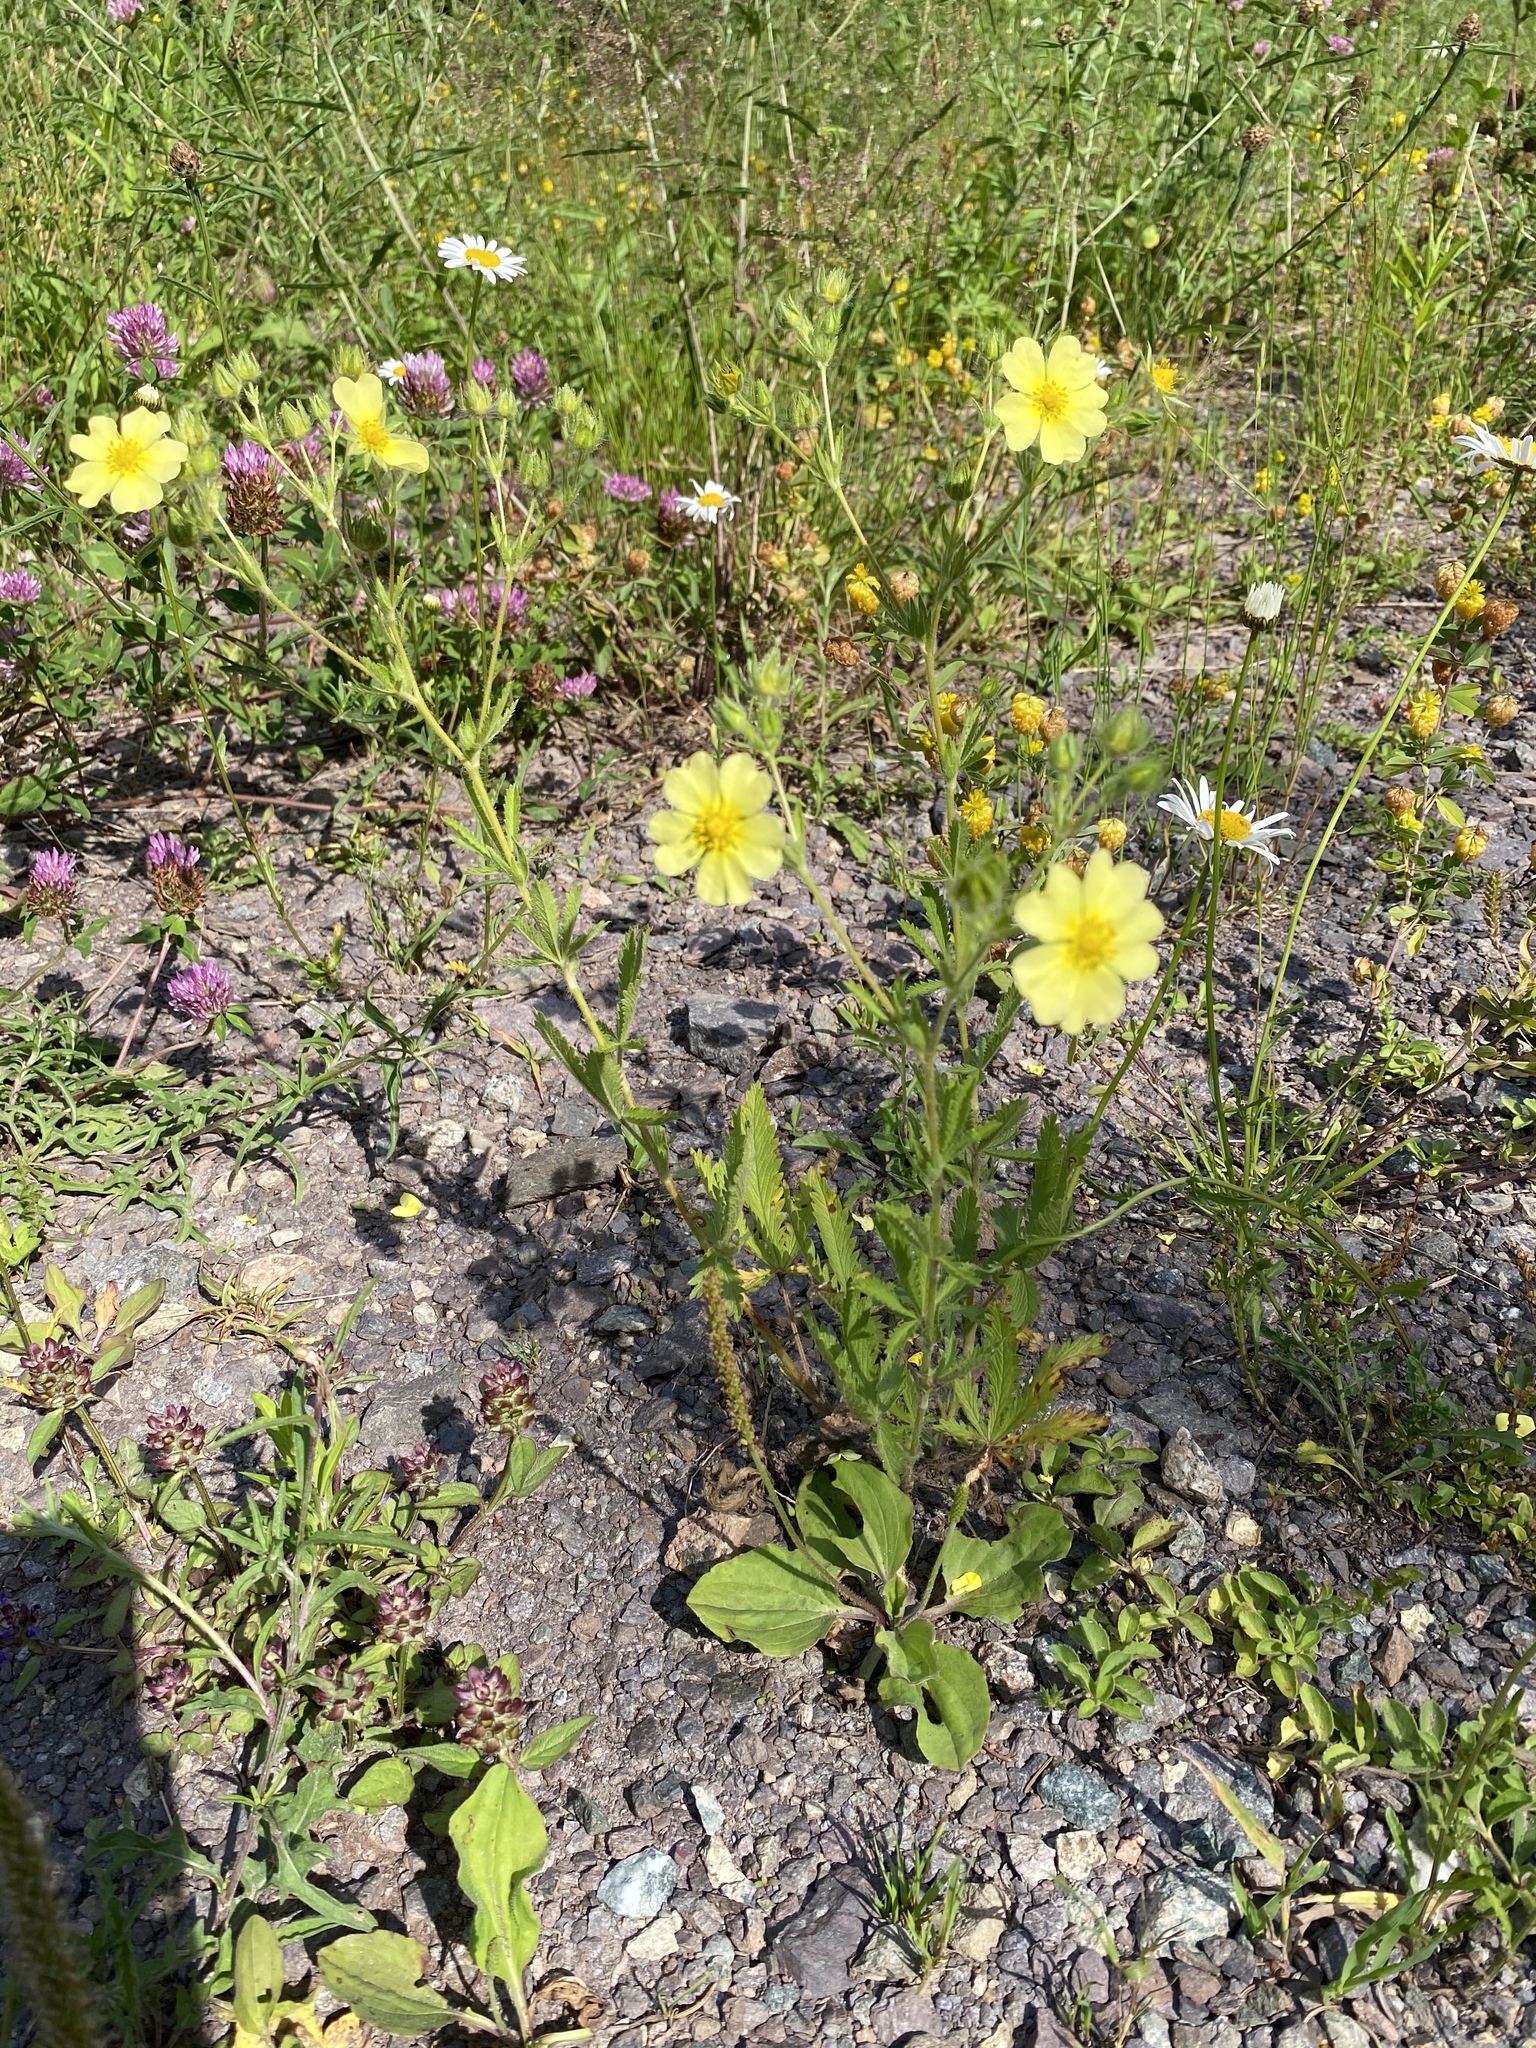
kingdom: Plantae
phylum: Tracheophyta
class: Magnoliopsida
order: Rosales
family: Rosaceae
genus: Potentilla
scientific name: Potentilla recta
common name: Sulphur cinquefoil
